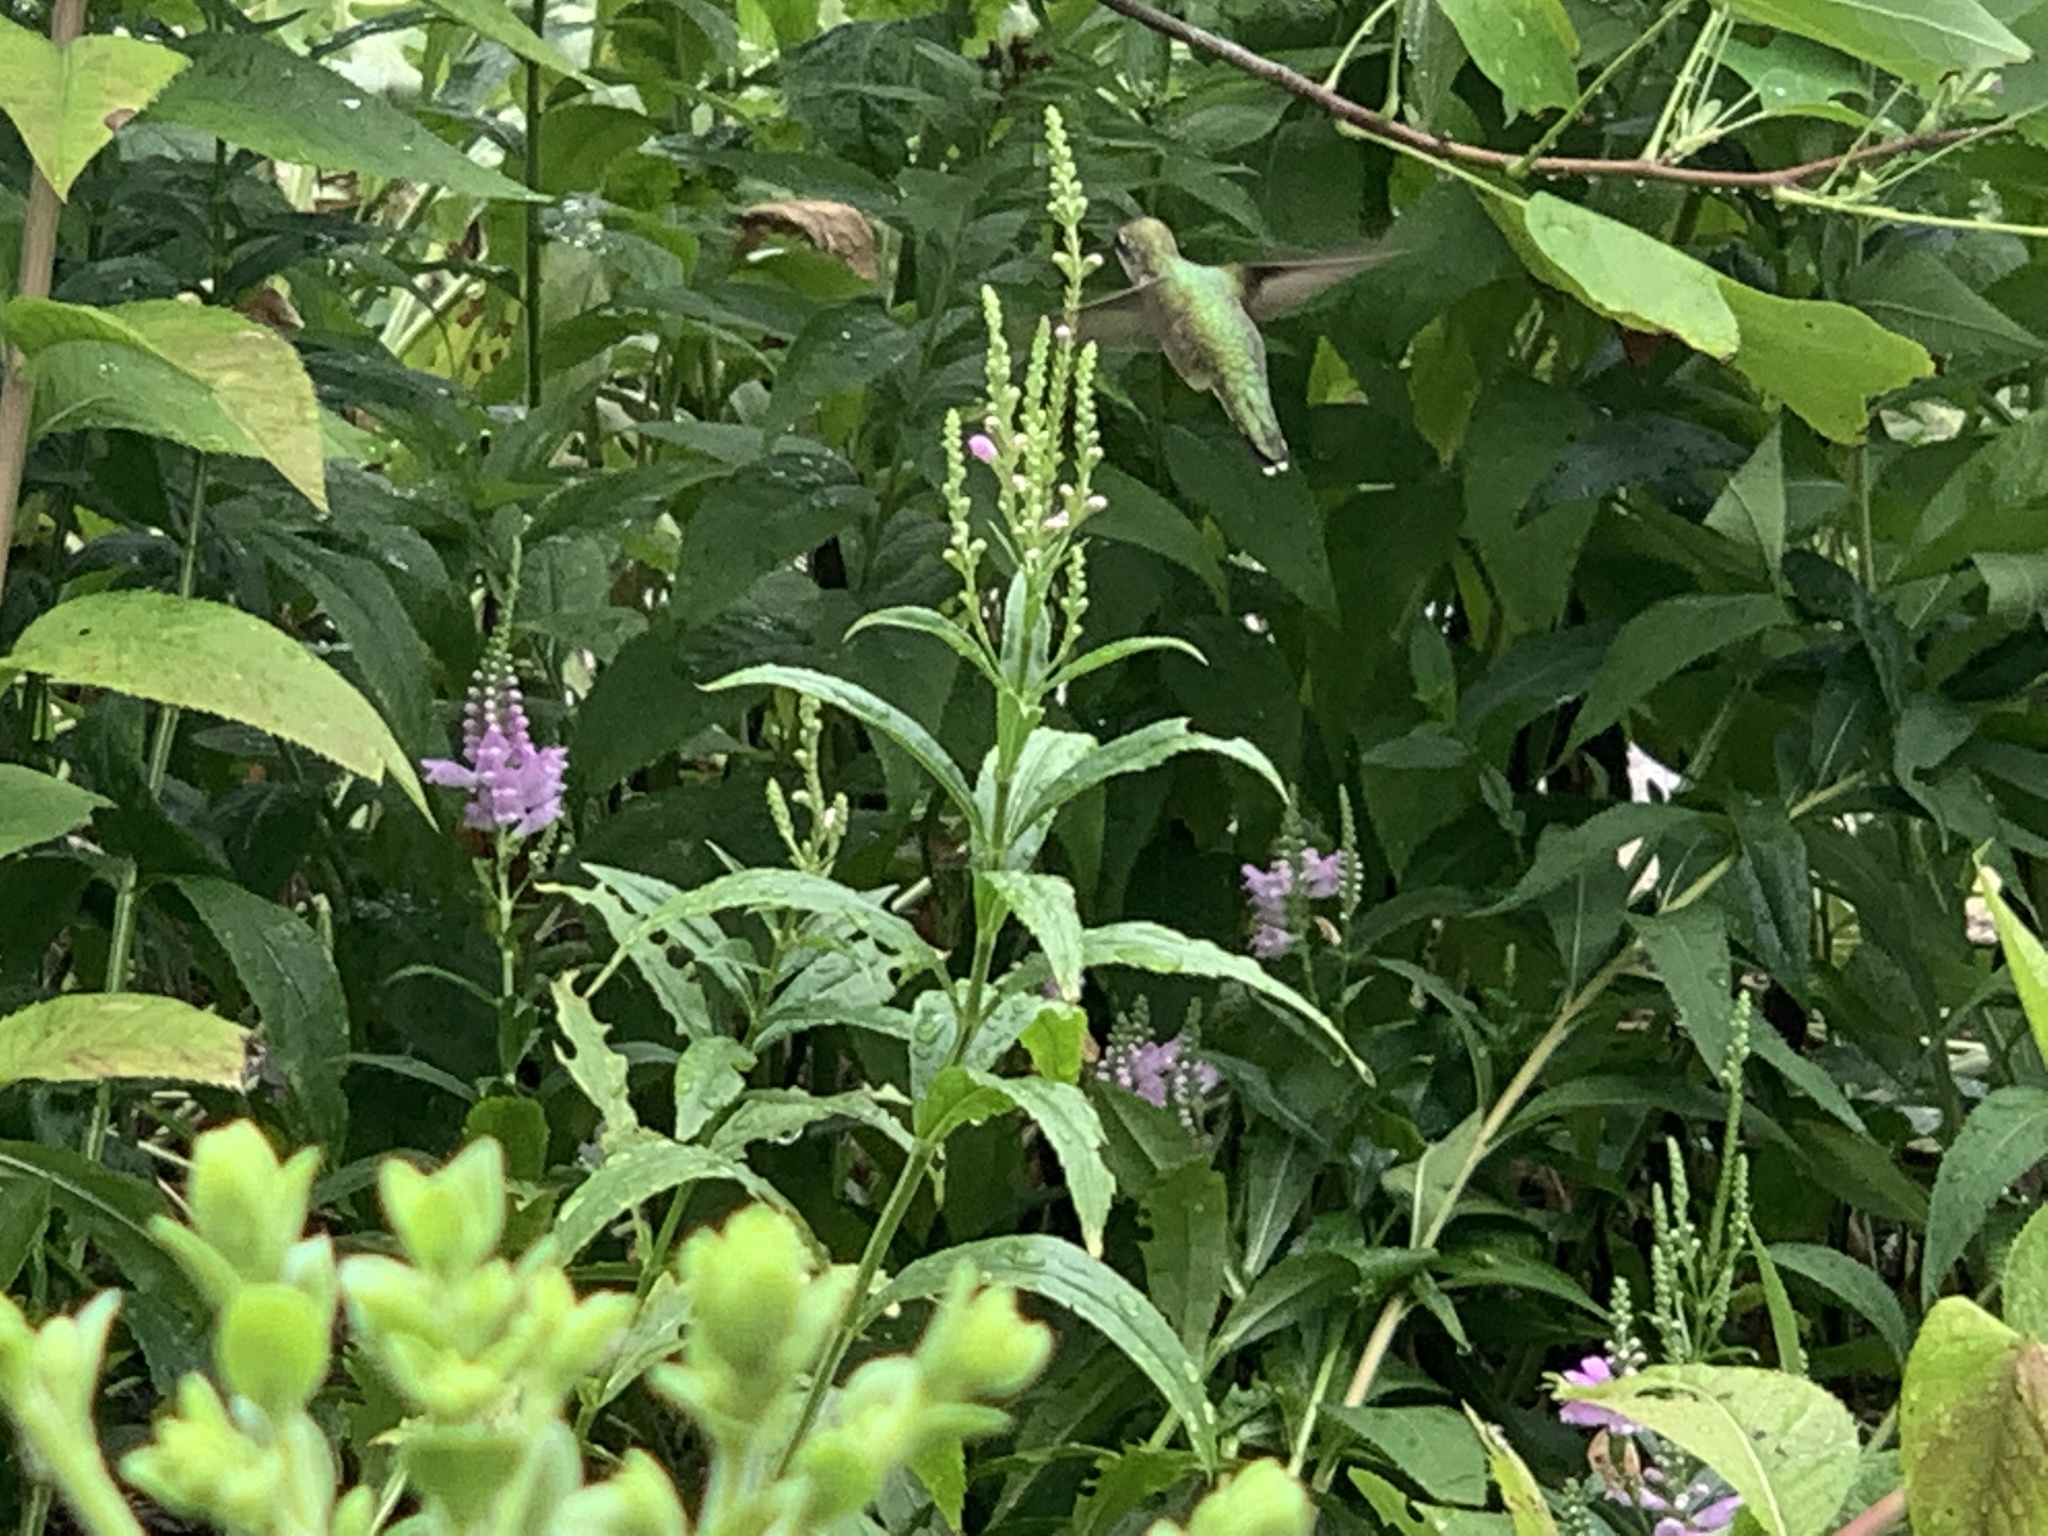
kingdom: Animalia
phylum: Chordata
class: Aves
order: Apodiformes
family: Trochilidae
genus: Archilochus
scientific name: Archilochus colubris
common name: Ruby-throated hummingbird
